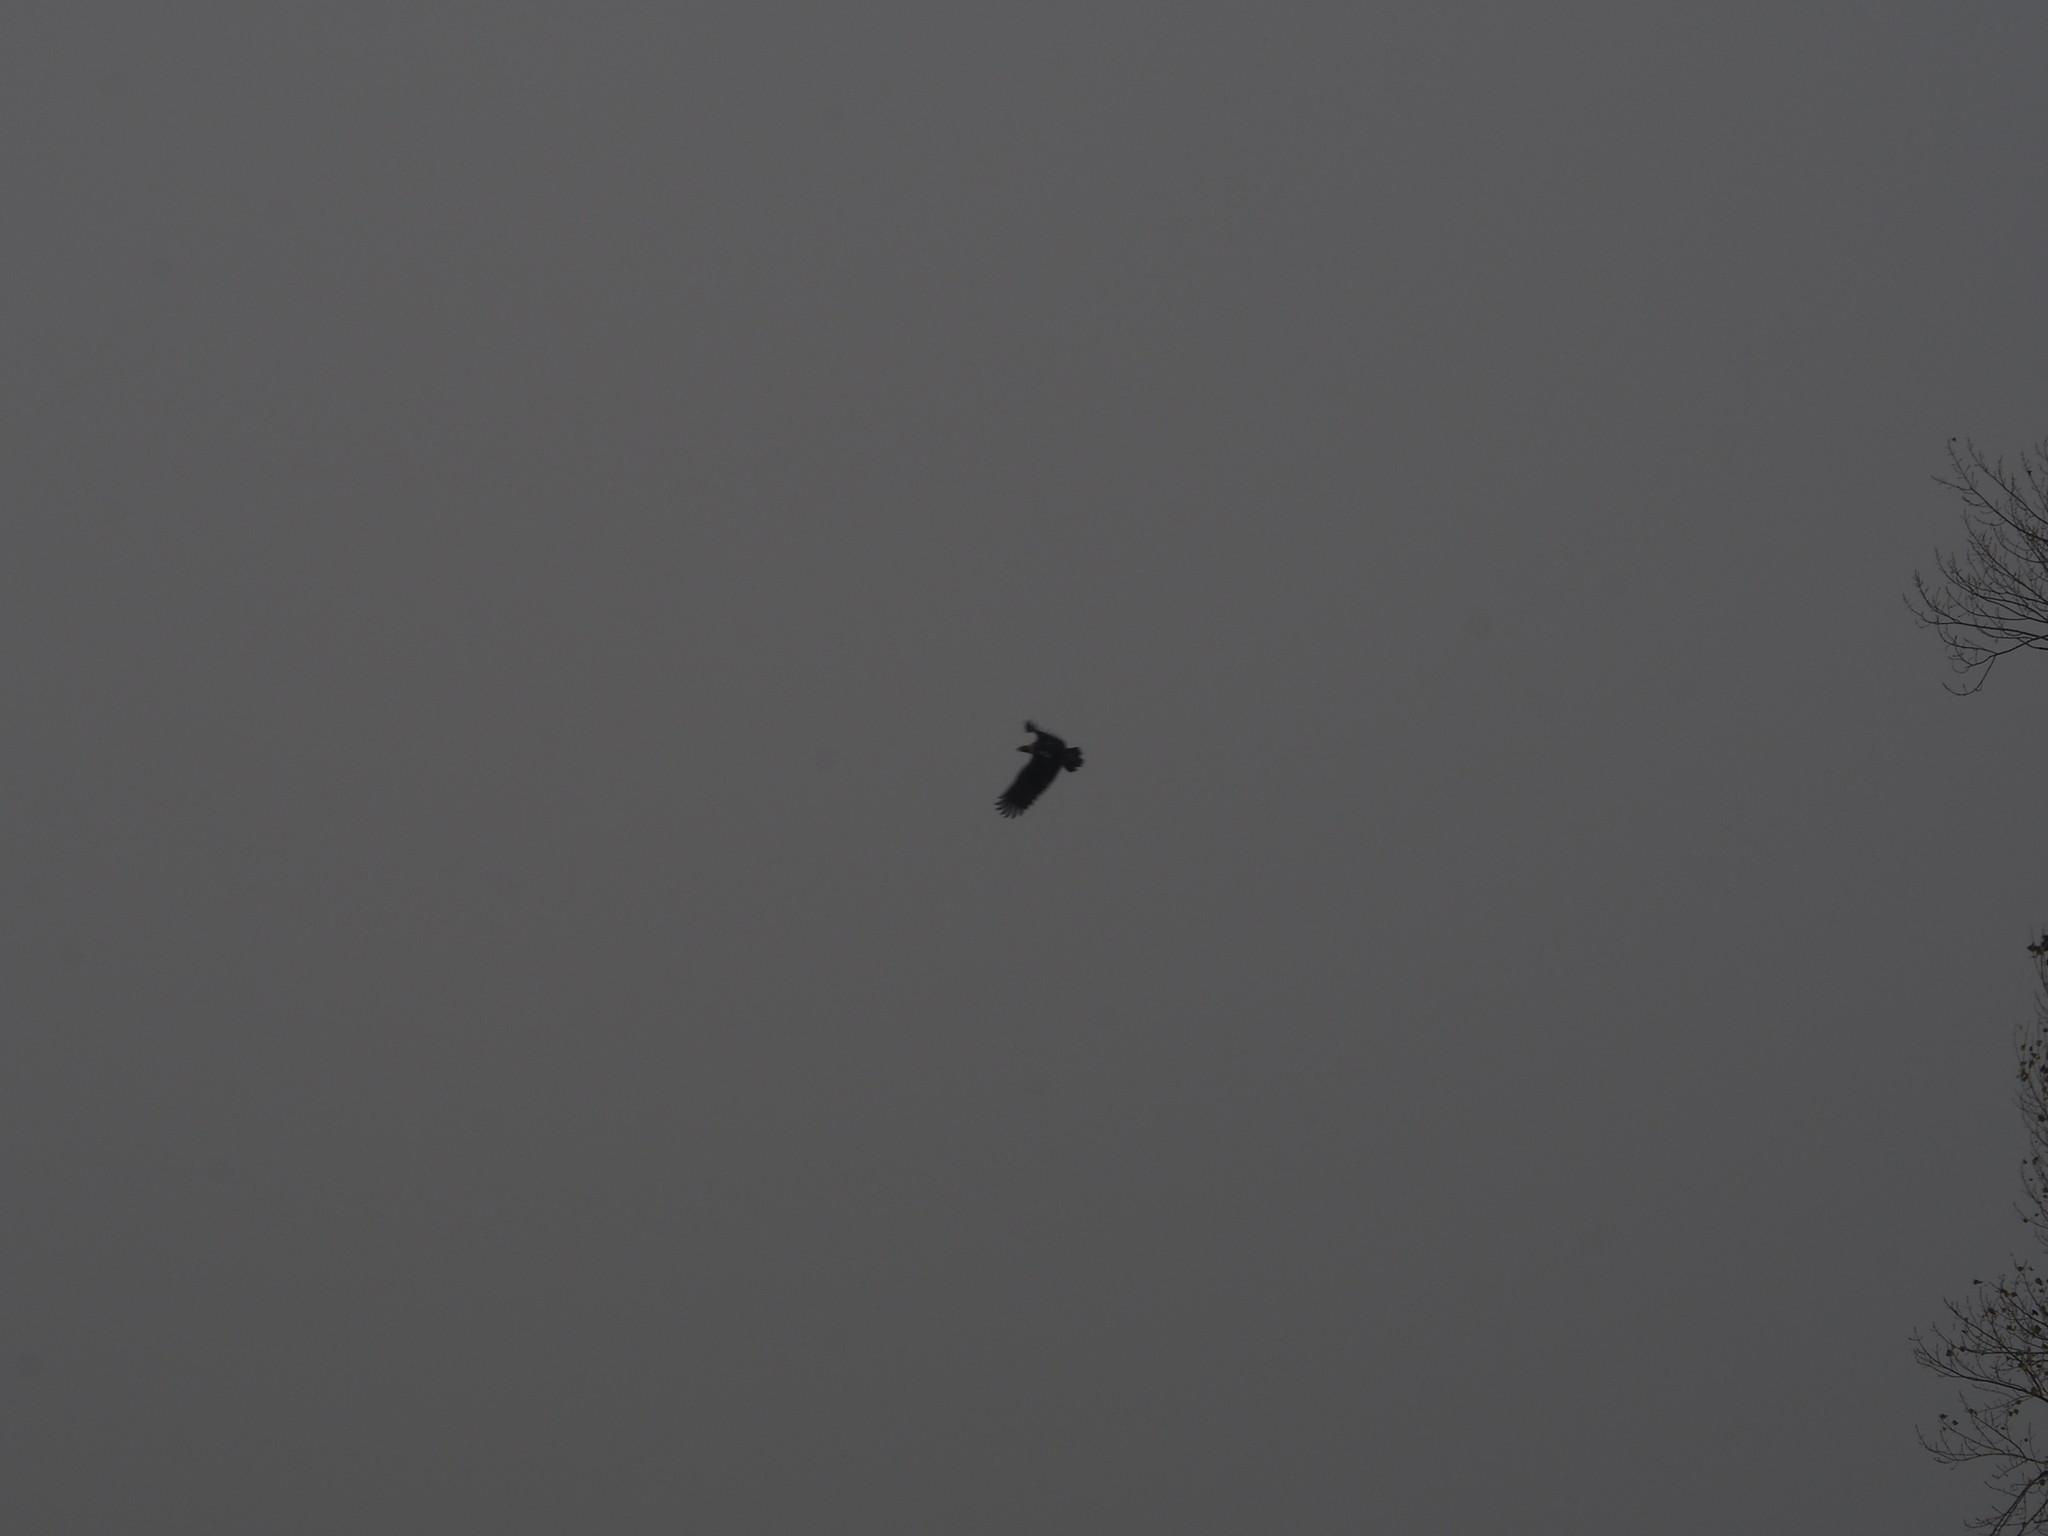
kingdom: Animalia
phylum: Chordata
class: Aves
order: Accipitriformes
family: Accipitridae
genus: Aquila
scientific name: Aquila heliaca
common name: Eastern imperial eagle
